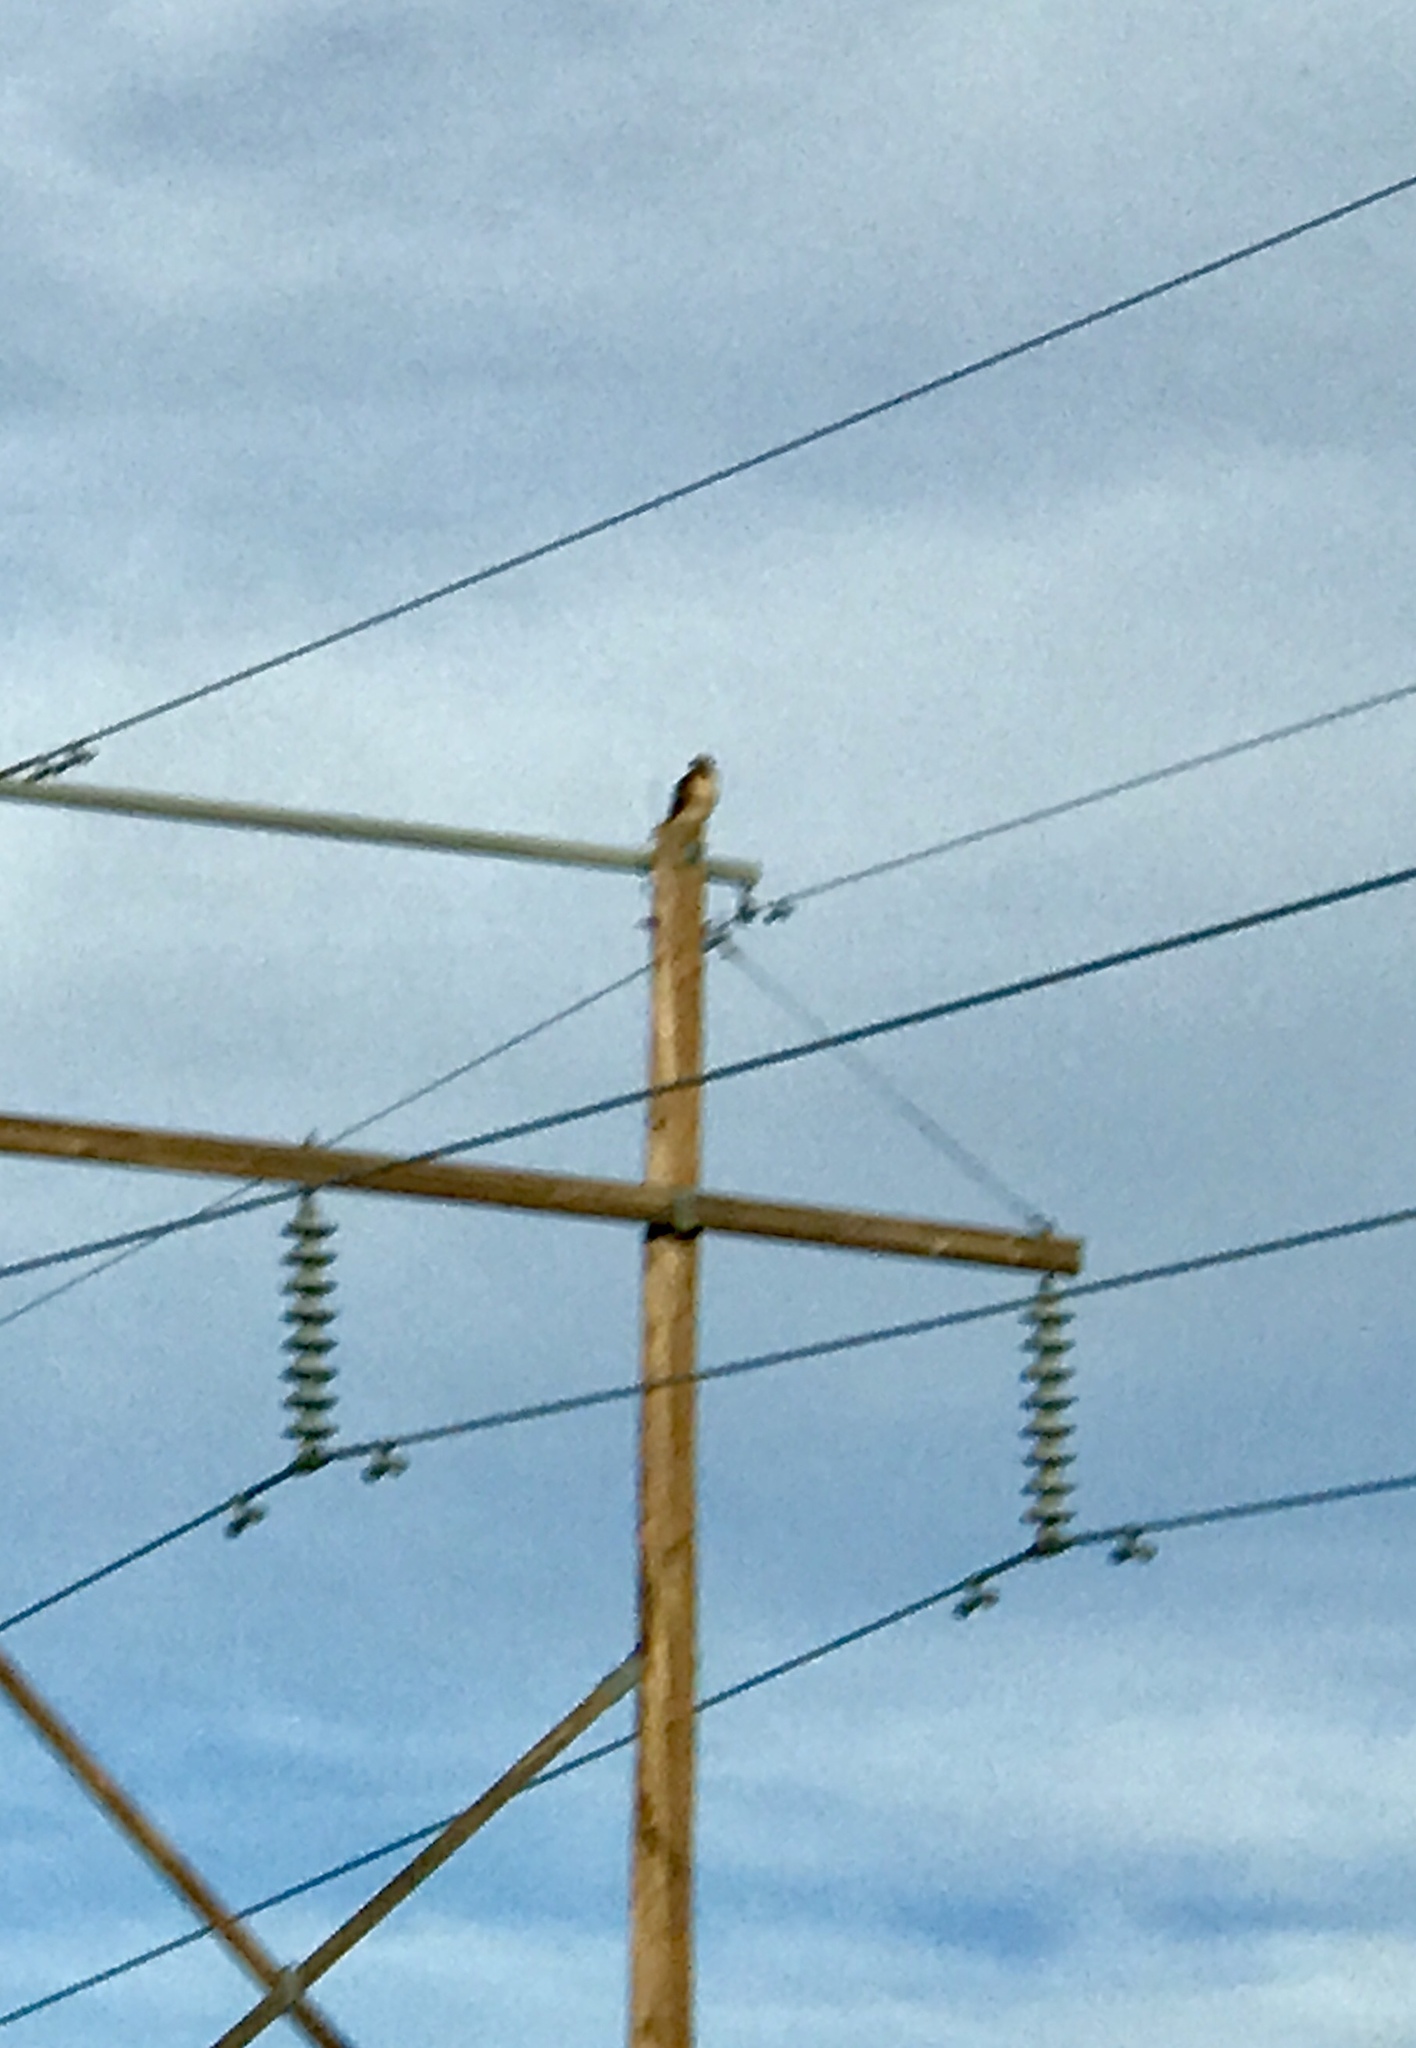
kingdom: Animalia
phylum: Chordata
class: Aves
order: Accipitriformes
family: Accipitridae
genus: Buteo
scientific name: Buteo jamaicensis
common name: Red-tailed hawk
